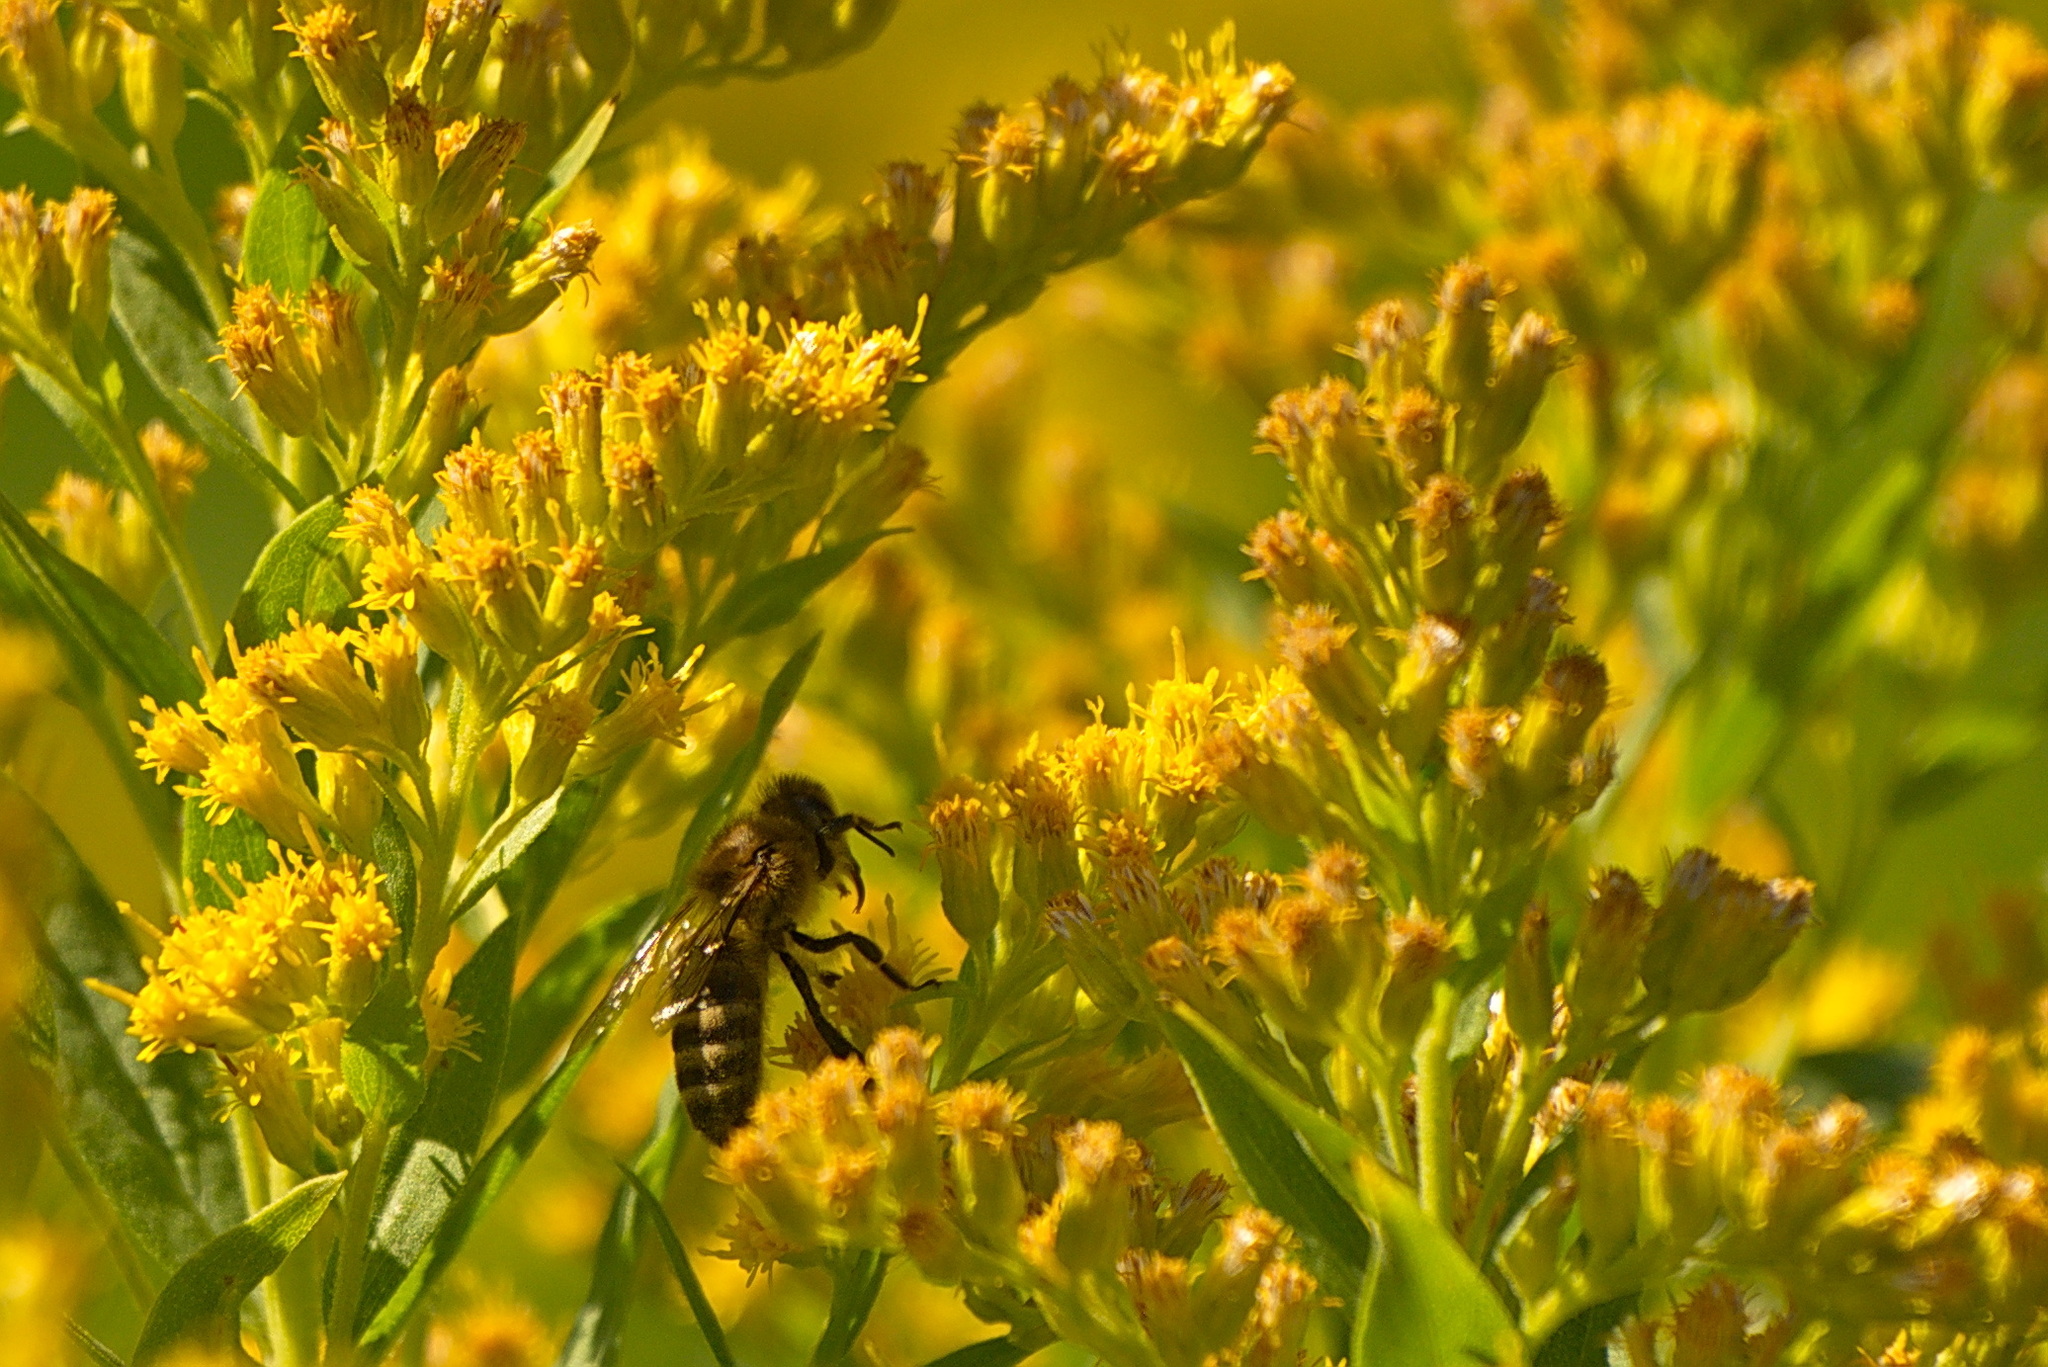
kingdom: Animalia
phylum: Arthropoda
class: Insecta
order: Hymenoptera
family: Apidae
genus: Apis
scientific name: Apis mellifera
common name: Honey bee
